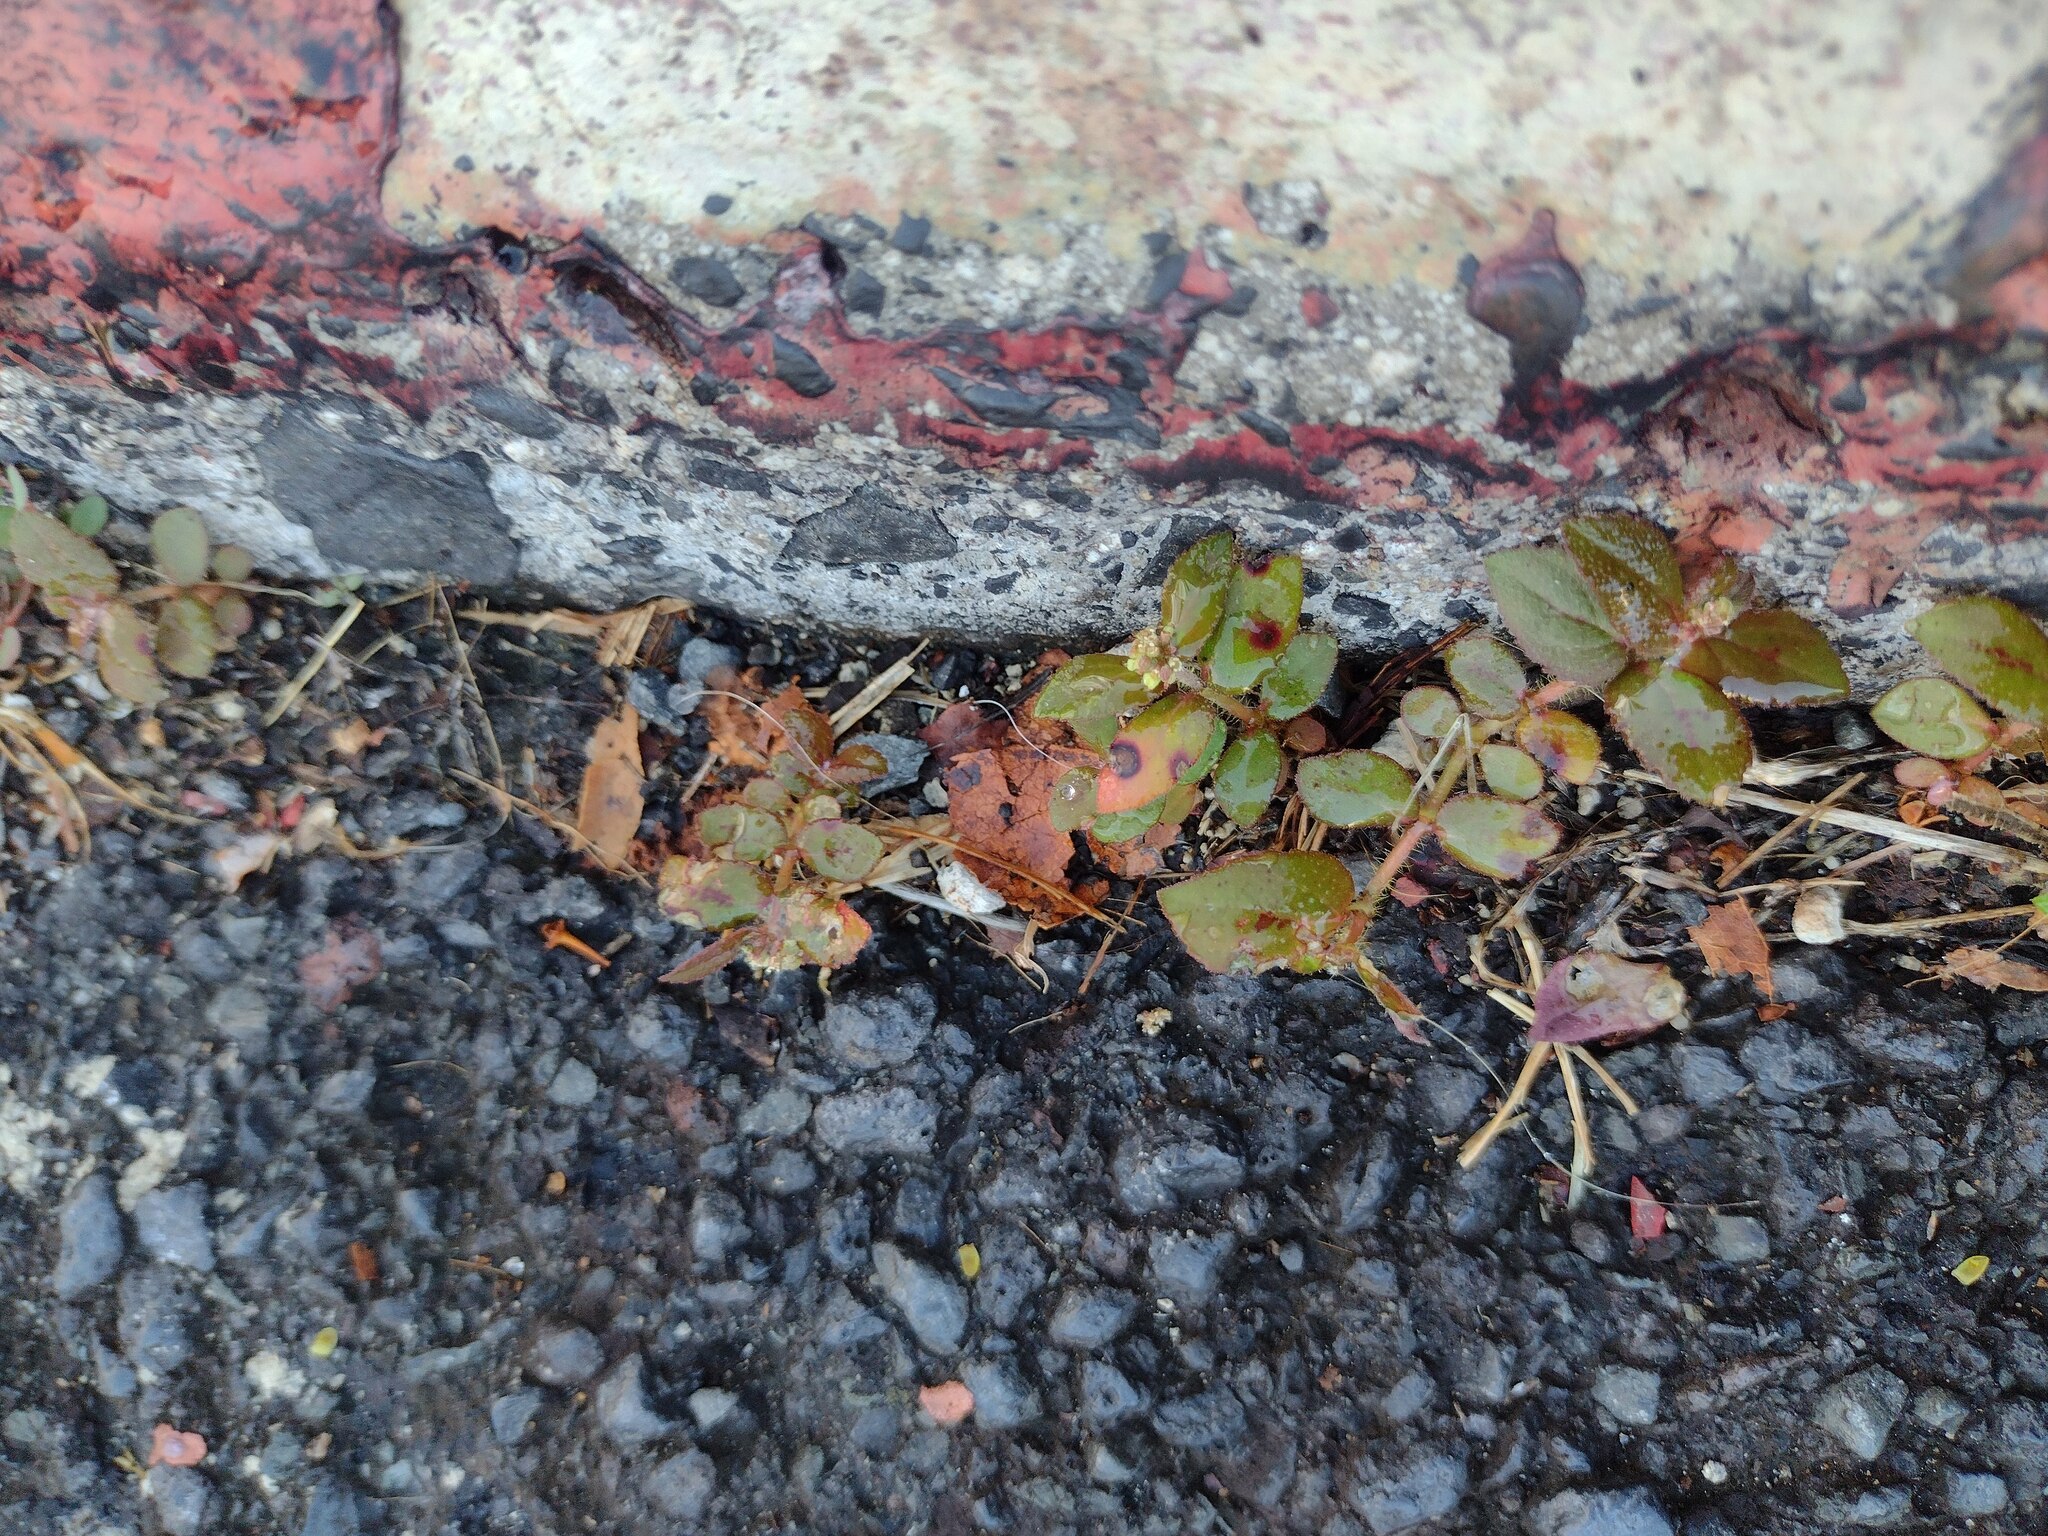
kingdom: Plantae
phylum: Tracheophyta
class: Magnoliopsida
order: Malpighiales
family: Euphorbiaceae
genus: Euphorbia
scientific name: Euphorbia hirta
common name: Pillpod sandmat
